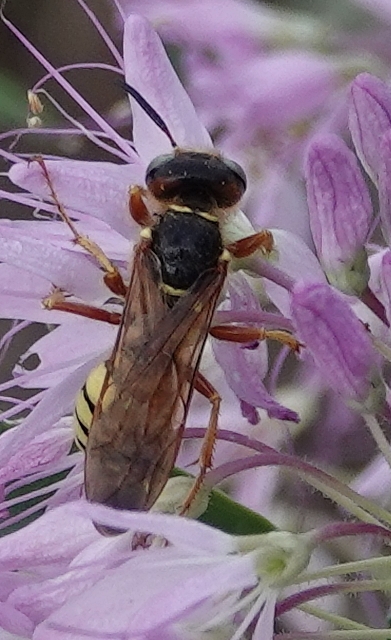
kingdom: Animalia
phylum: Arthropoda
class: Insecta
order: Hymenoptera
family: Crabronidae
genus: Philanthus
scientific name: Philanthus gloriosus
